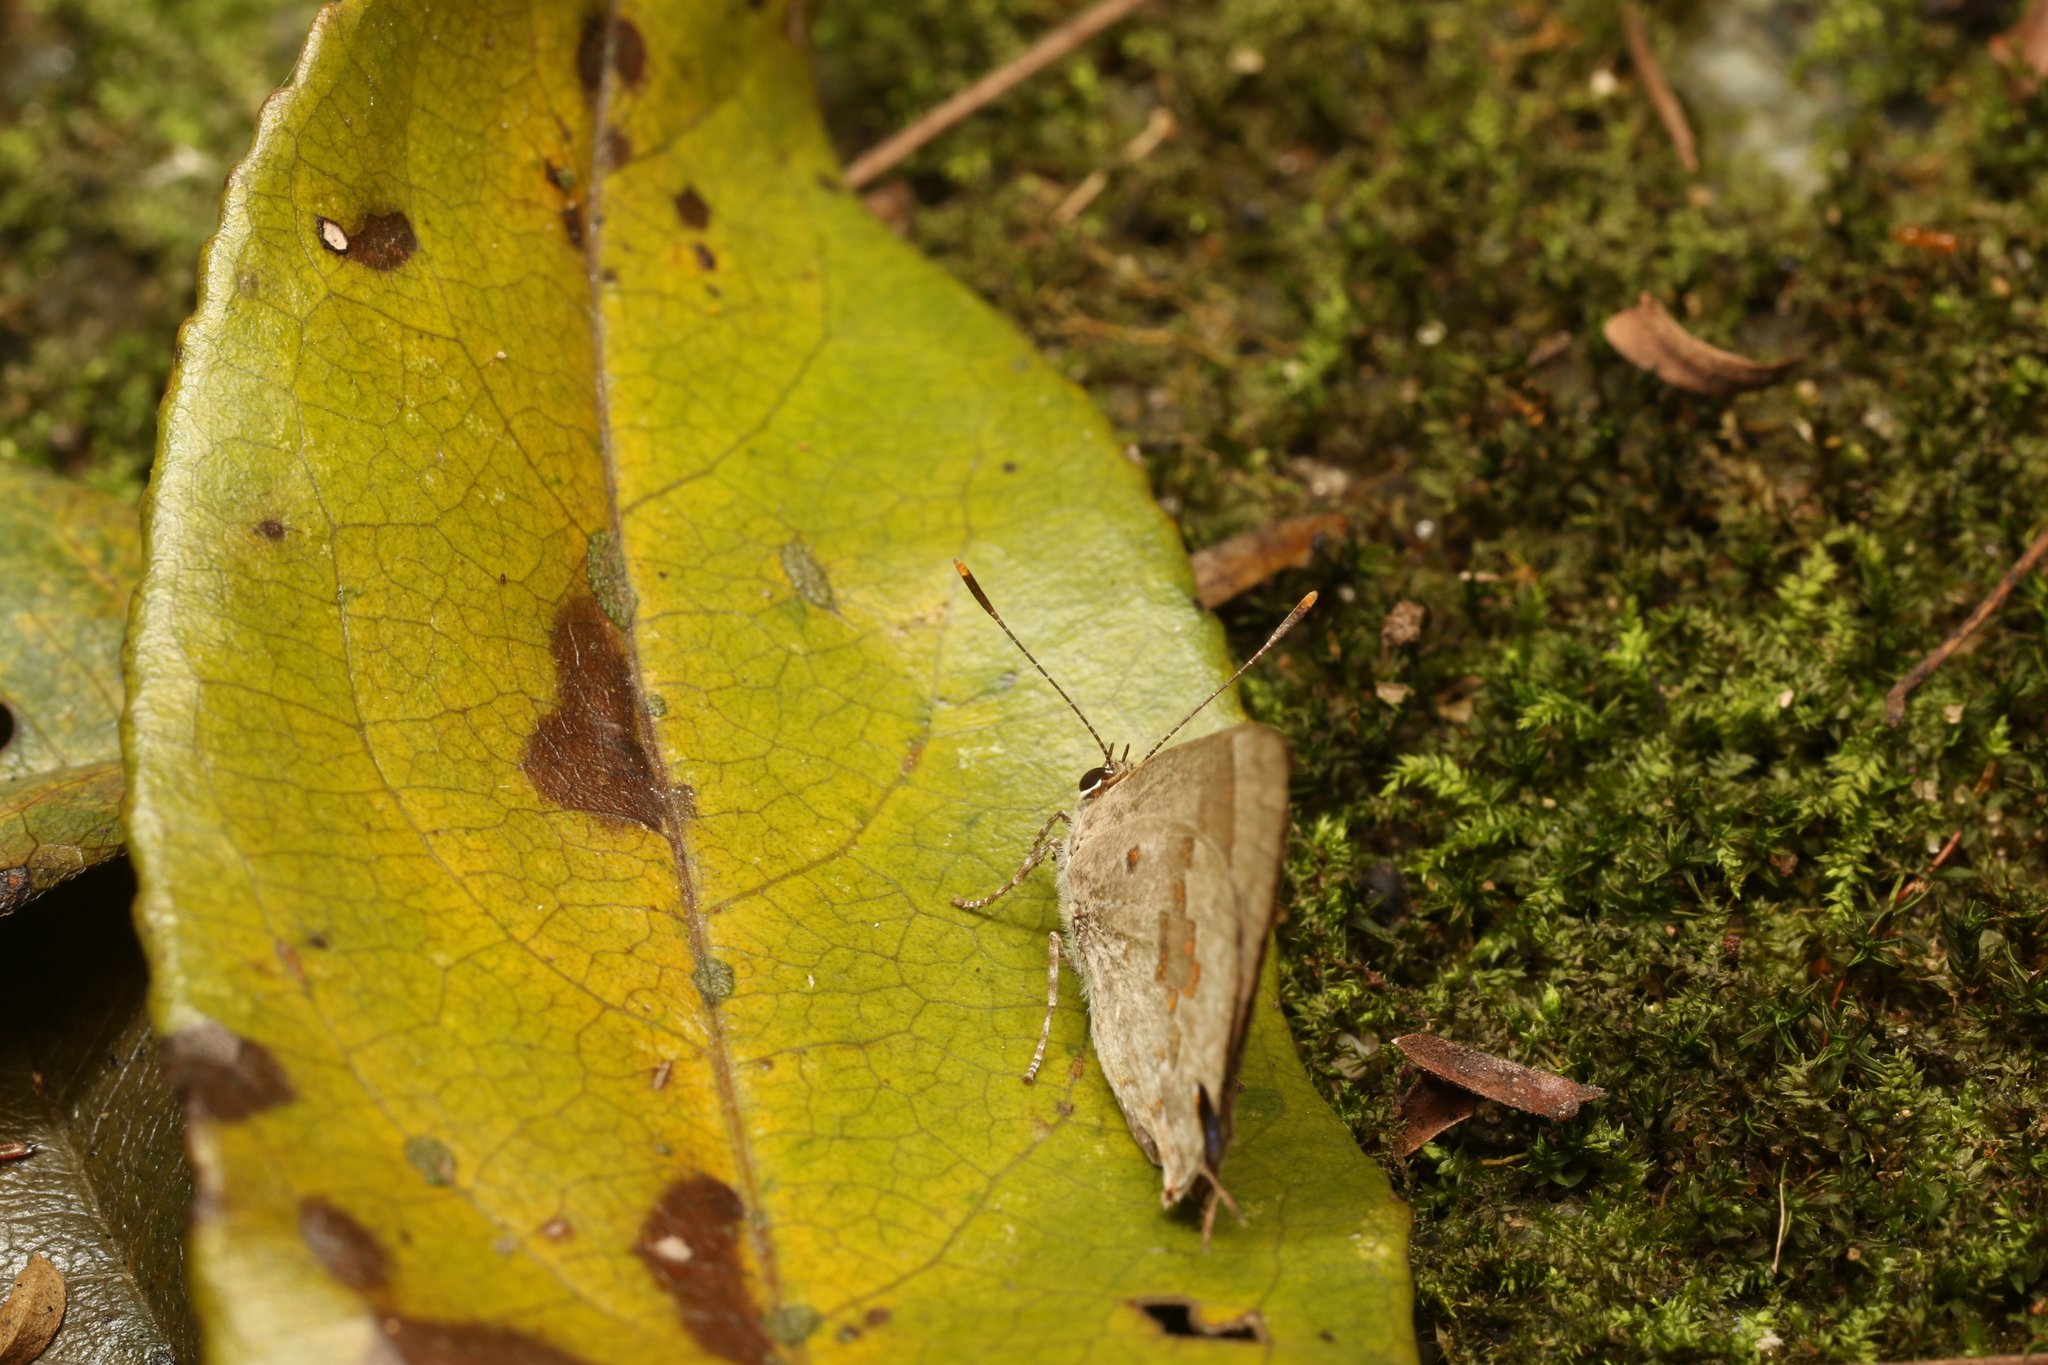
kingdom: Animalia
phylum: Arthropoda
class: Insecta
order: Lepidoptera
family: Lycaenidae
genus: Tmolus
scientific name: Tmolus echion
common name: Red-spotted hairstreak
